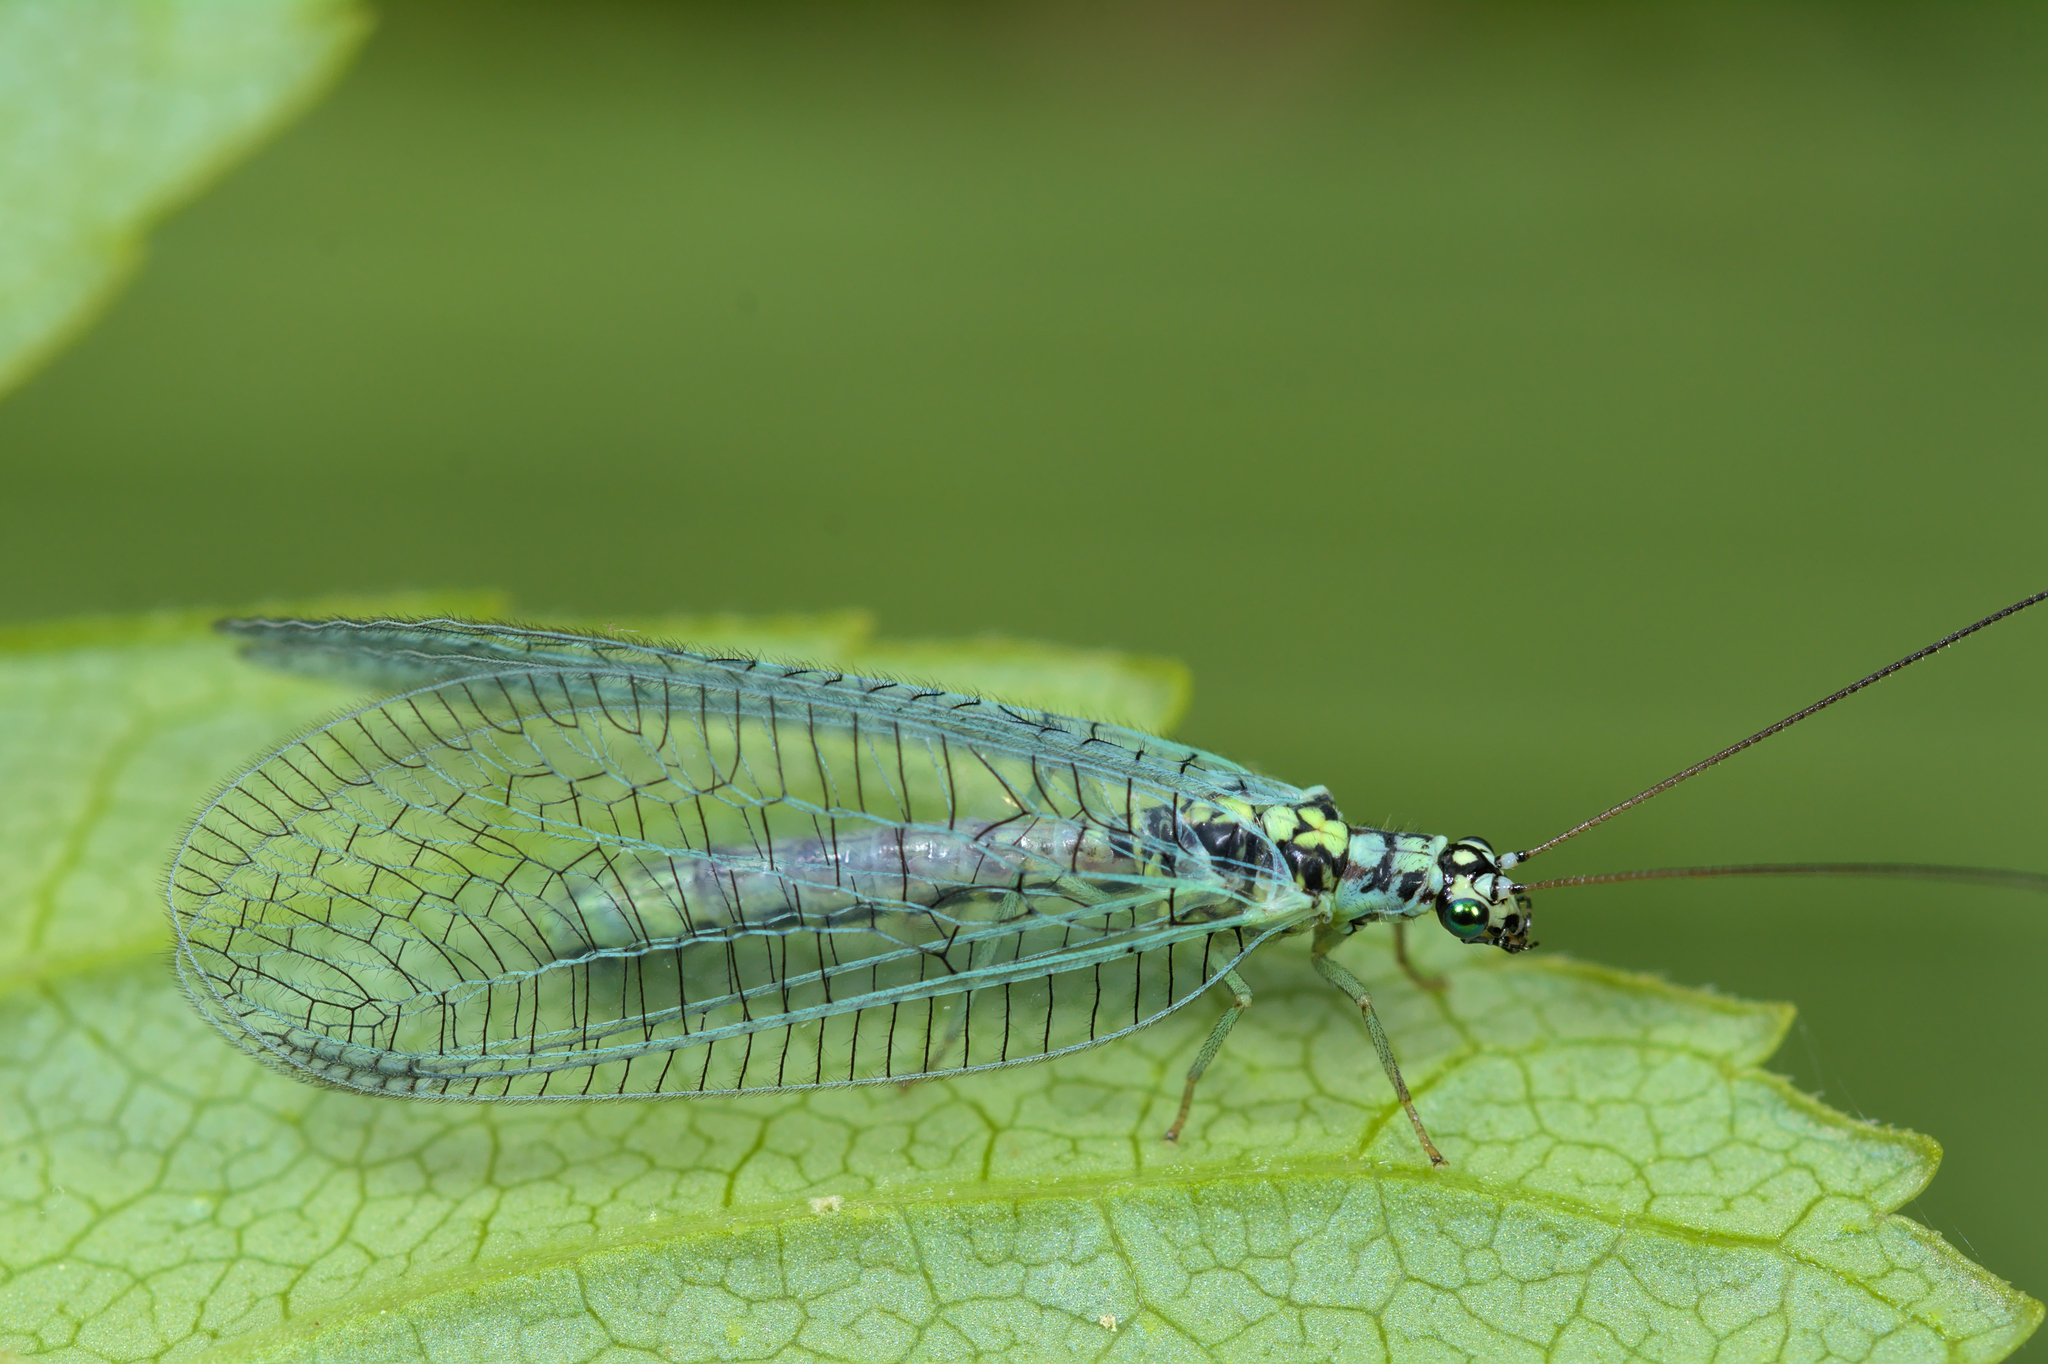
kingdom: Animalia
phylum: Arthropoda
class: Insecta
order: Neuroptera
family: Chrysopidae
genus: Chrysopa
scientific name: Chrysopa perla
